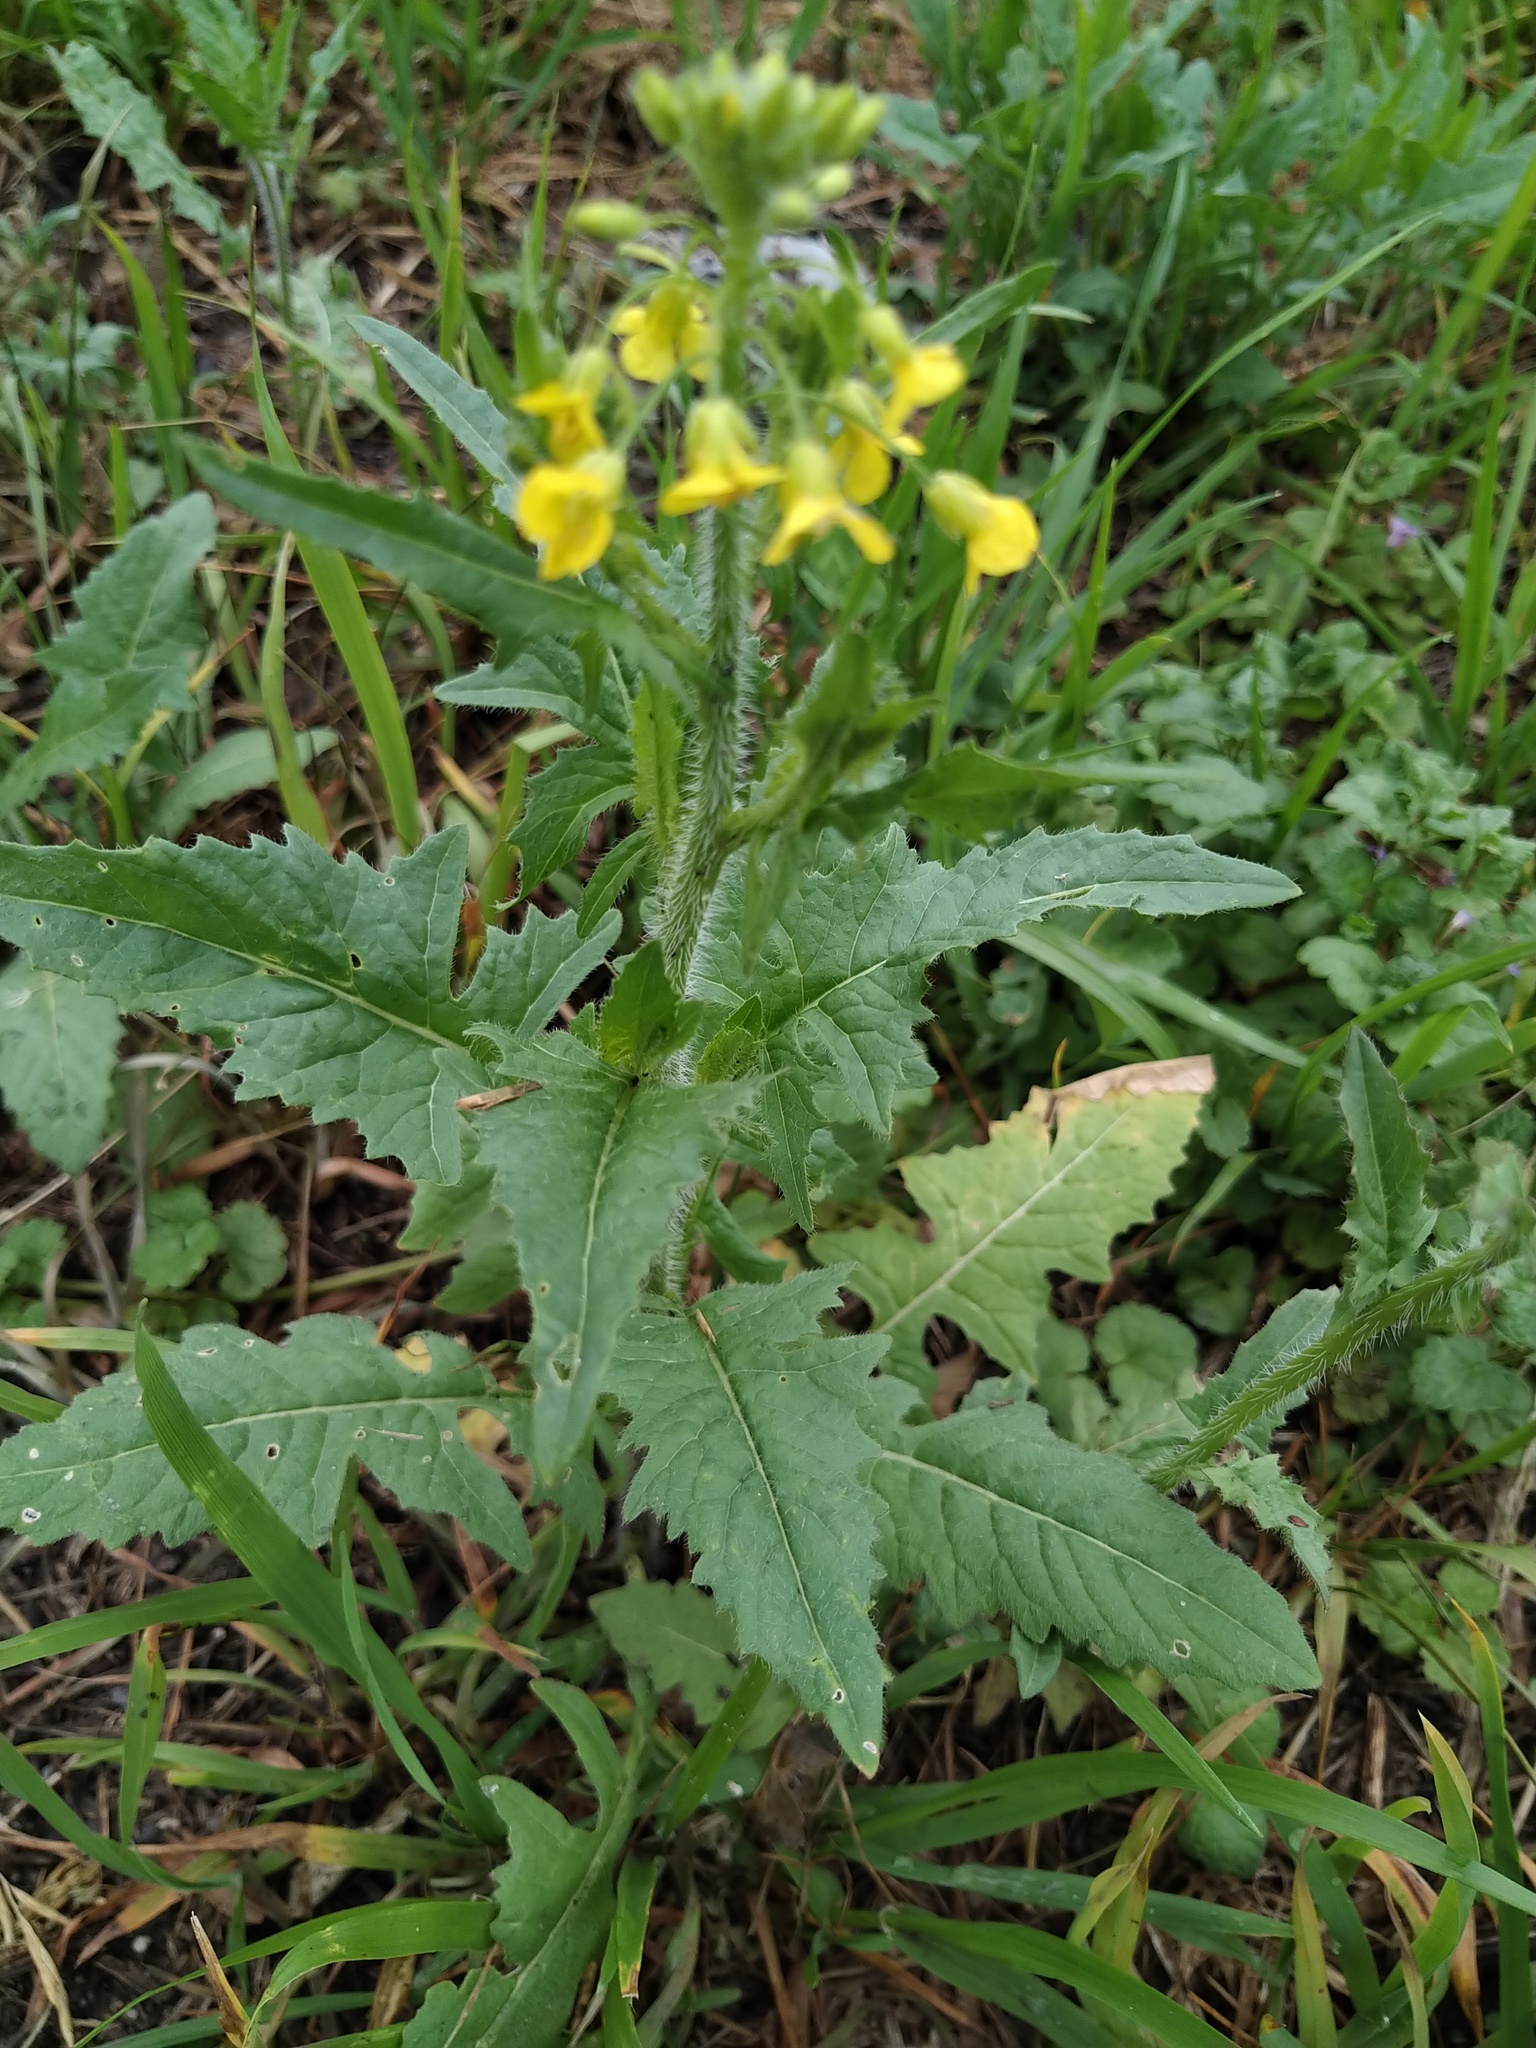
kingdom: Plantae
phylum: Tracheophyta
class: Magnoliopsida
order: Brassicales
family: Brassicaceae
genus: Sisymbrium
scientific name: Sisymbrium loeselii
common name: False london-rocket
